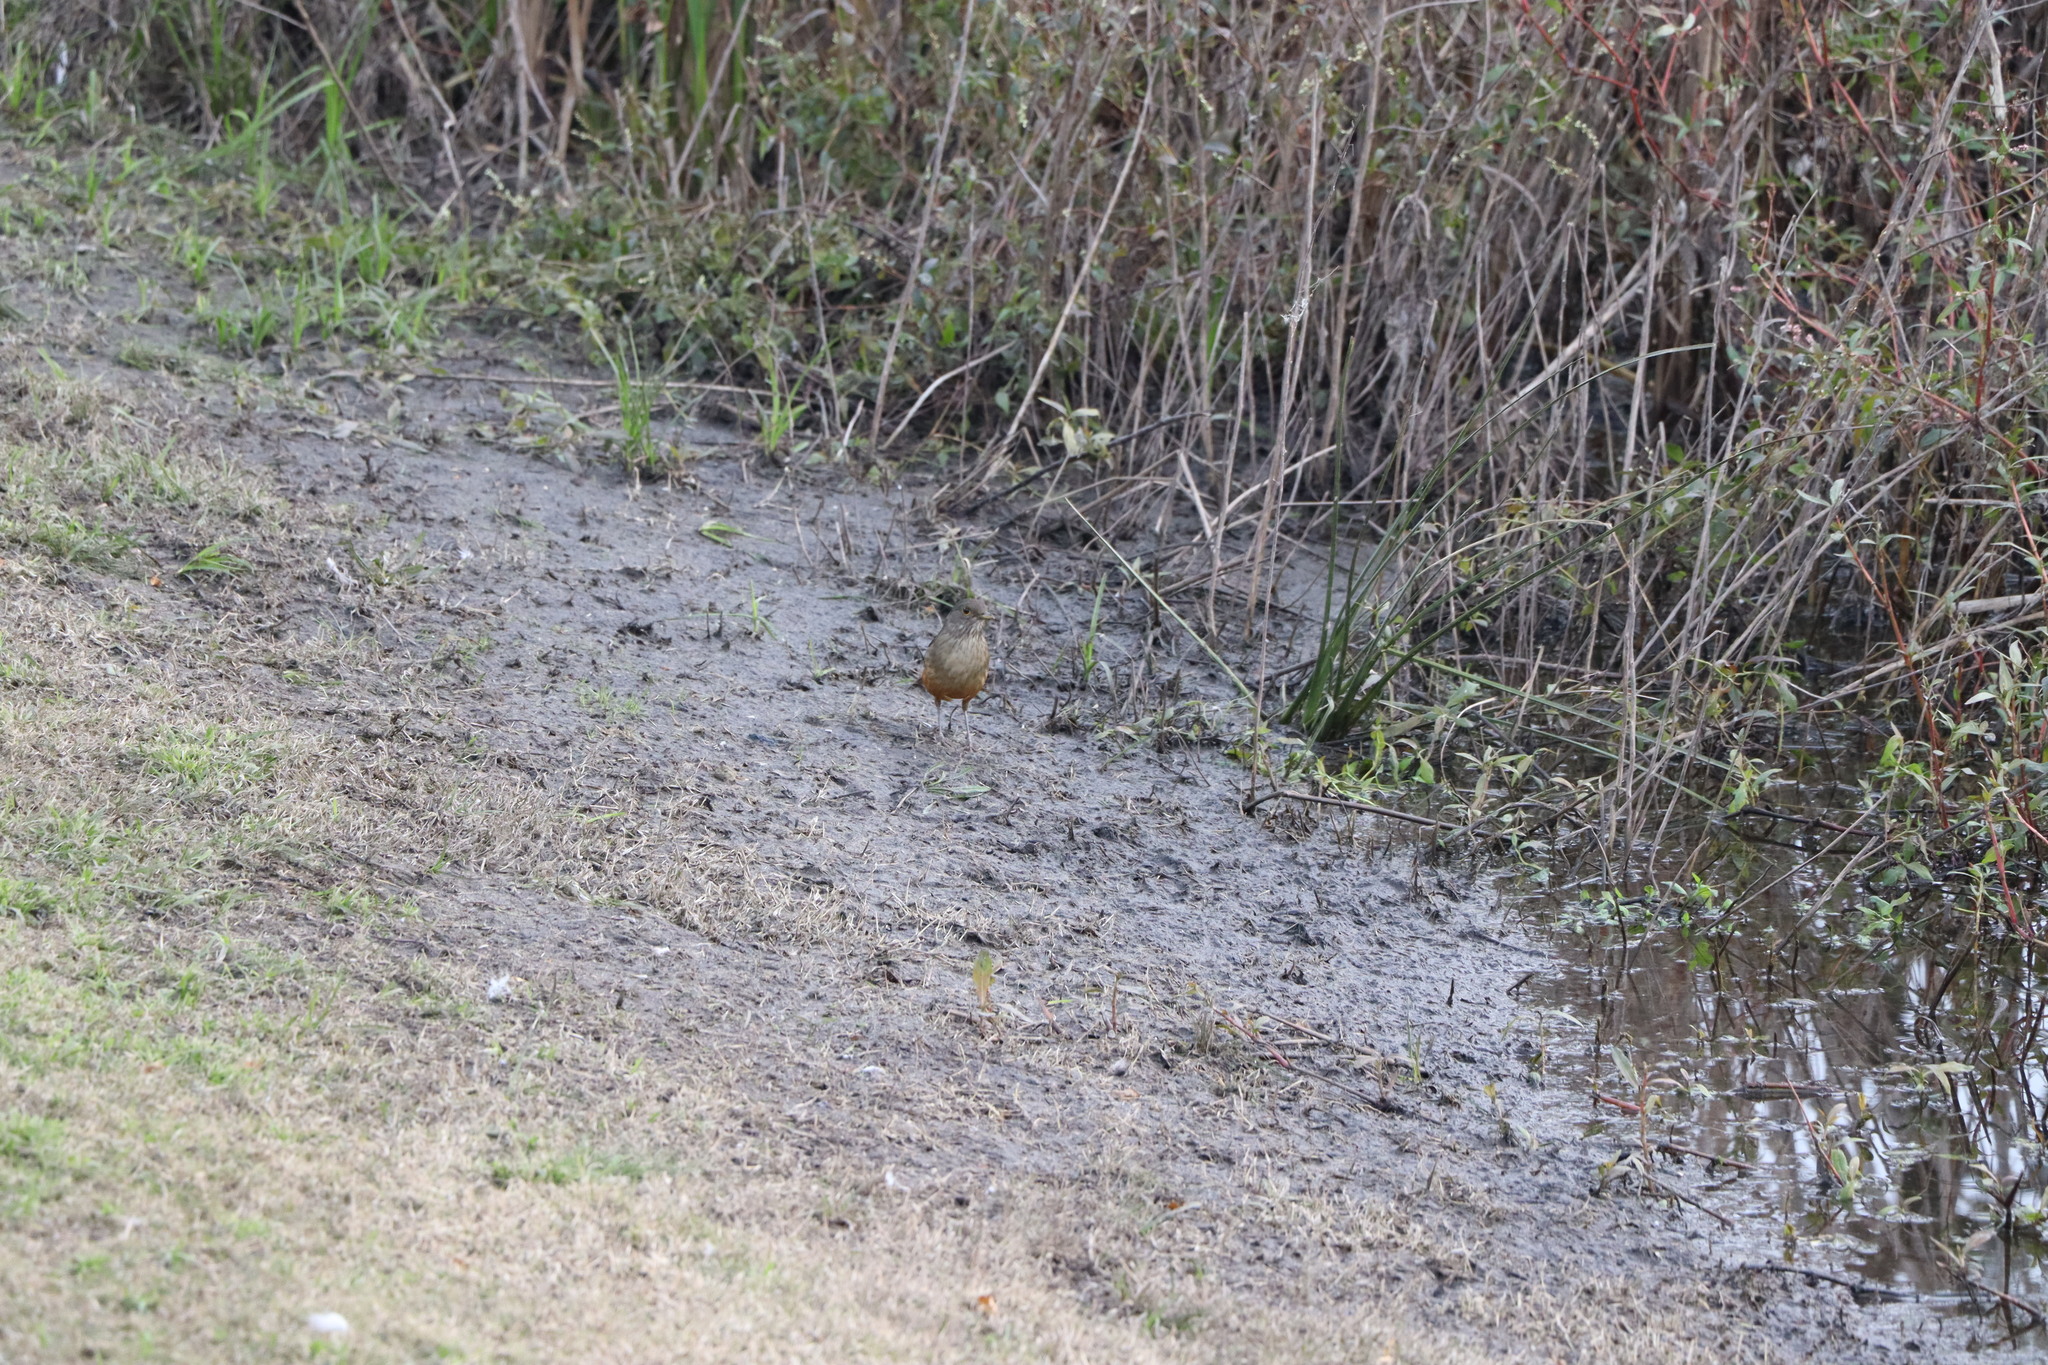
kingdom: Animalia
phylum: Chordata
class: Aves
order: Passeriformes
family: Turdidae
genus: Turdus
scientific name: Turdus rufiventris
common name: Rufous-bellied thrush
